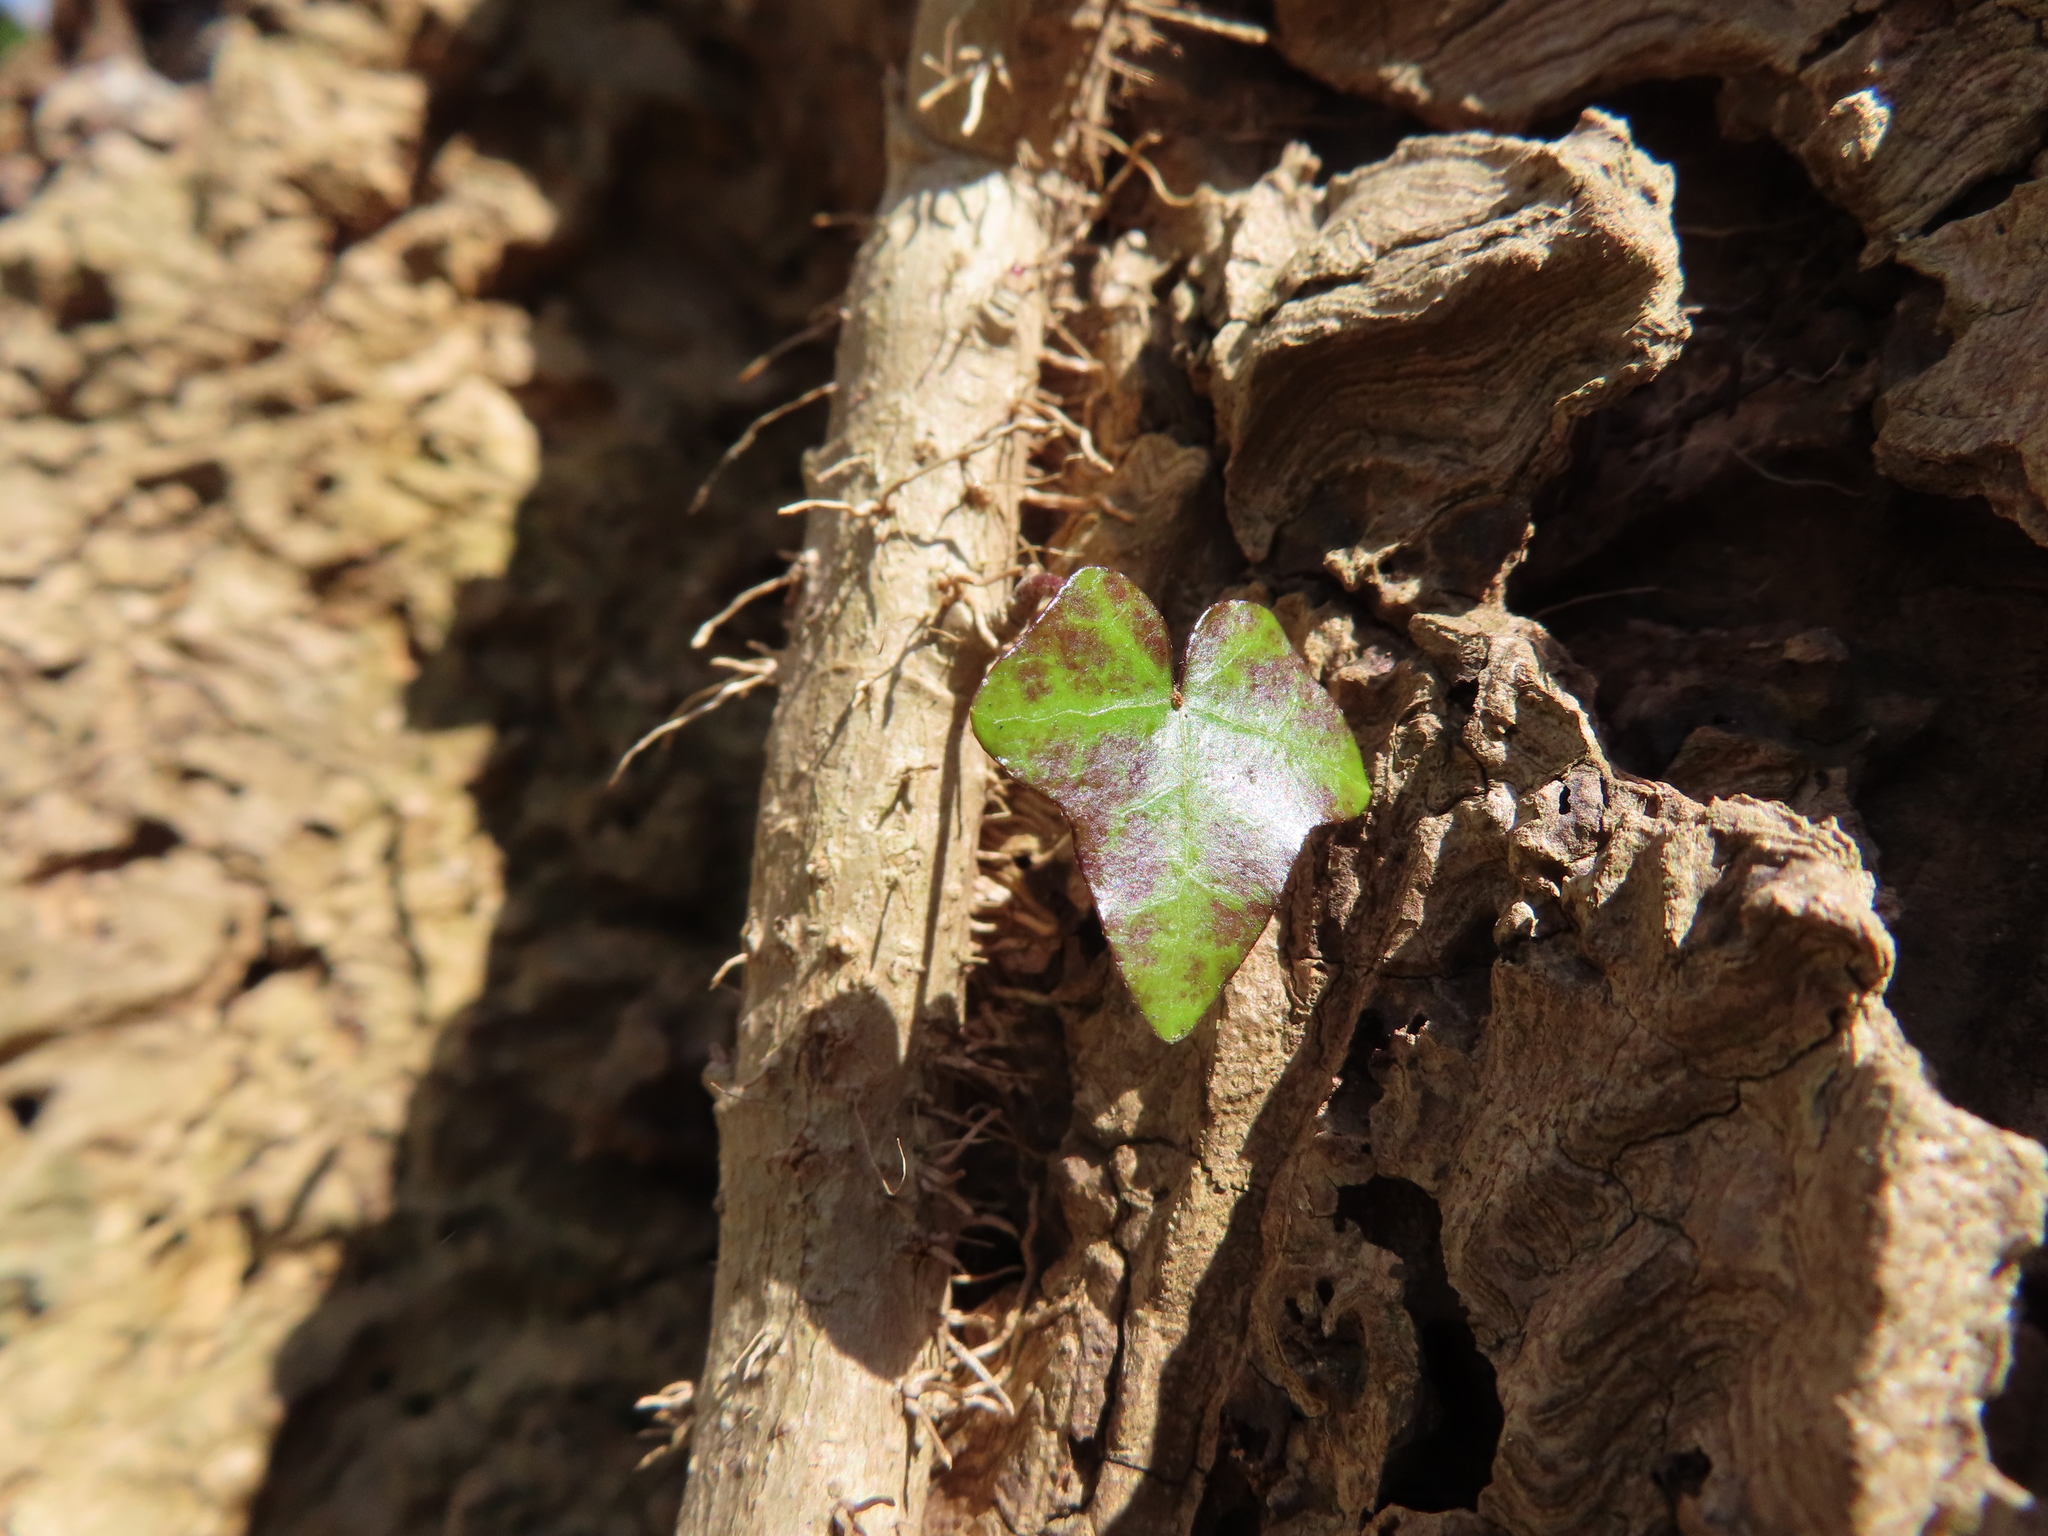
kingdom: Plantae
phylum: Tracheophyta
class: Magnoliopsida
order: Apiales
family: Araliaceae
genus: Hedera
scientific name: Hedera helix
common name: Ivy
